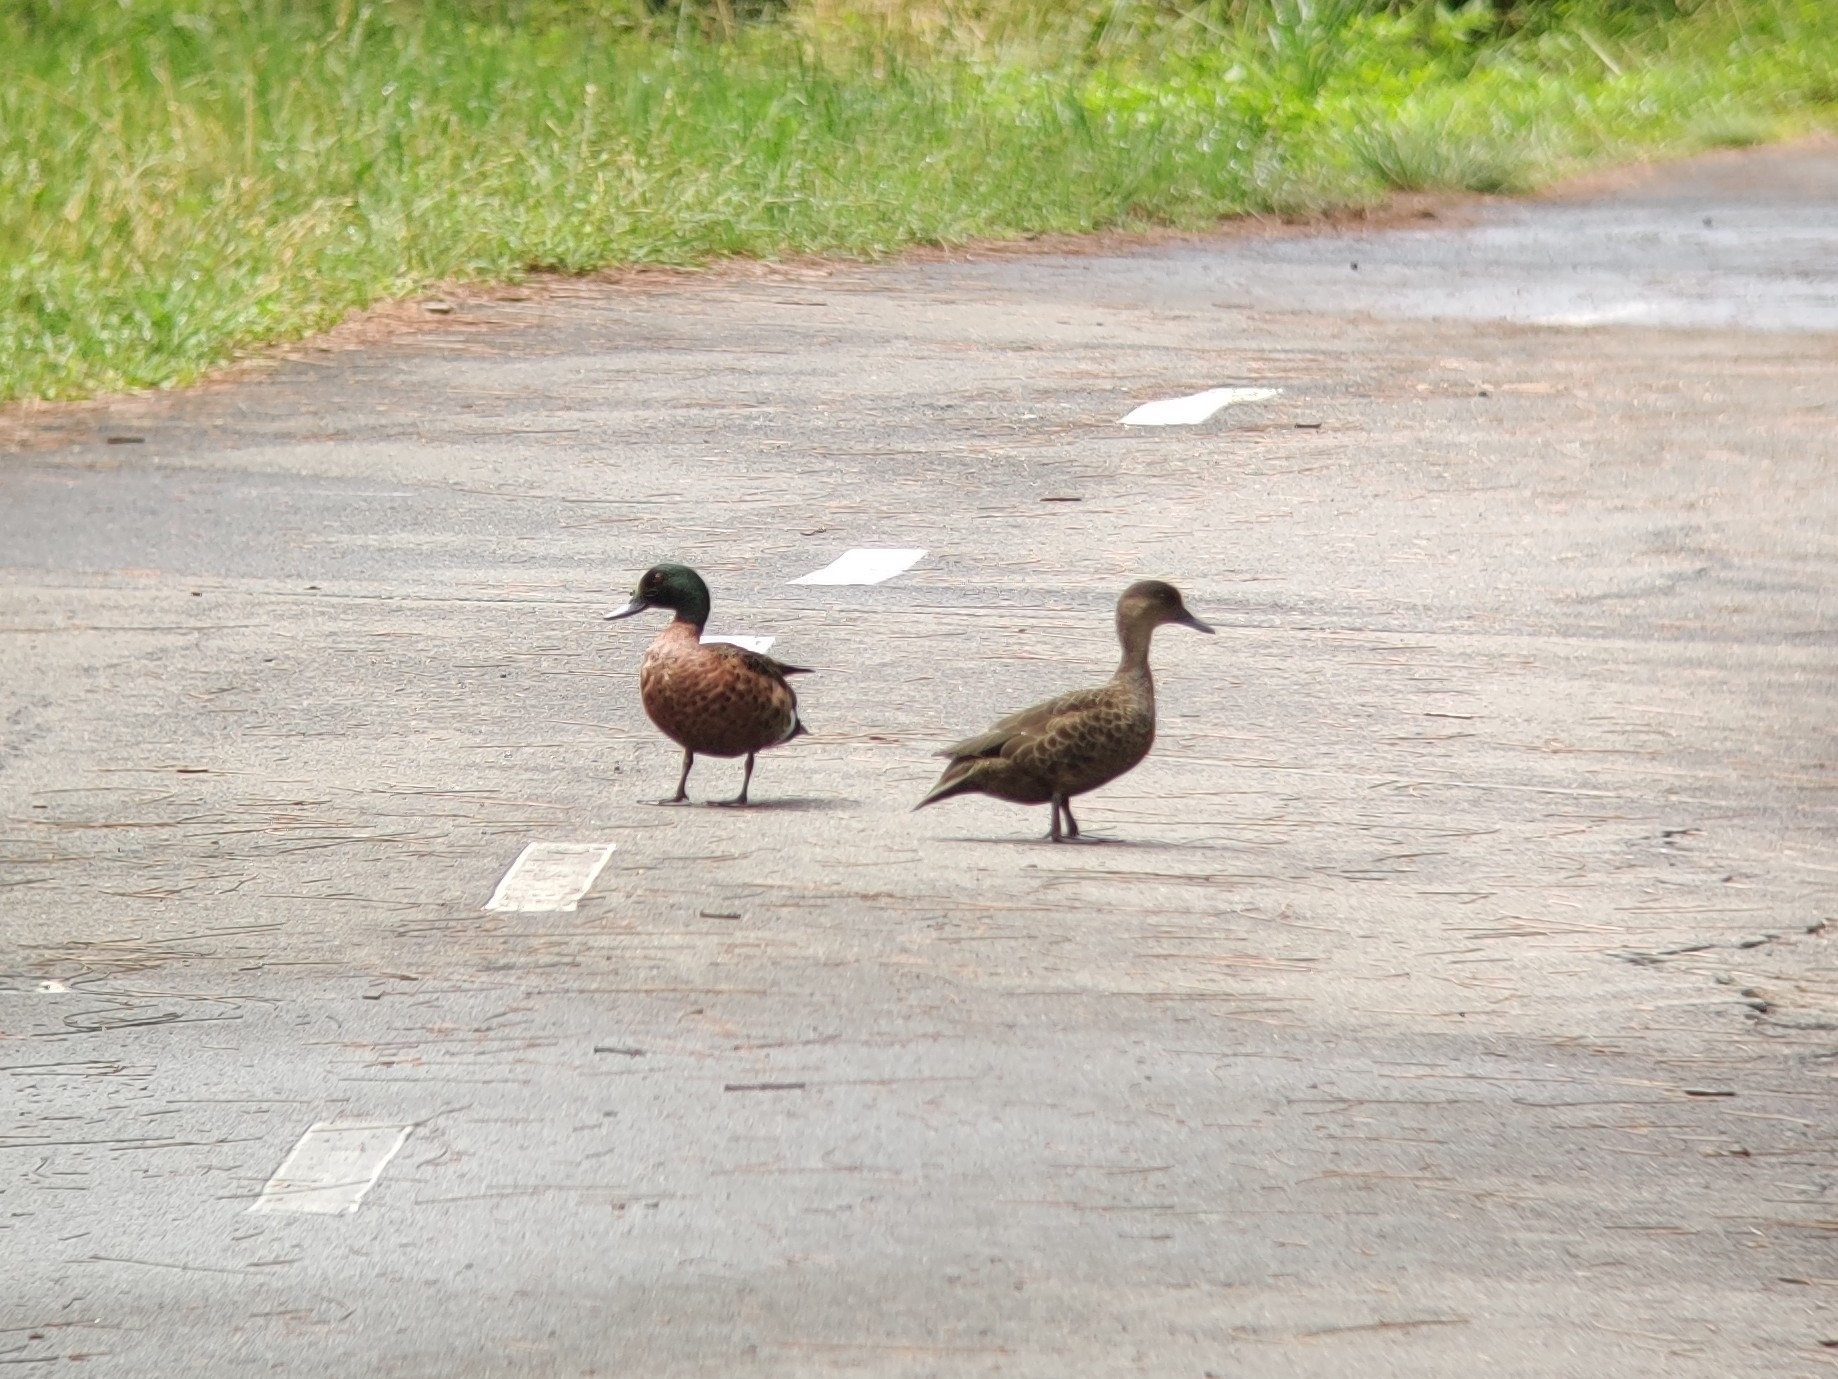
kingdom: Animalia
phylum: Chordata
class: Aves
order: Anseriformes
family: Anatidae
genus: Anas
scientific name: Anas castanea
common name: Chestnut teal
